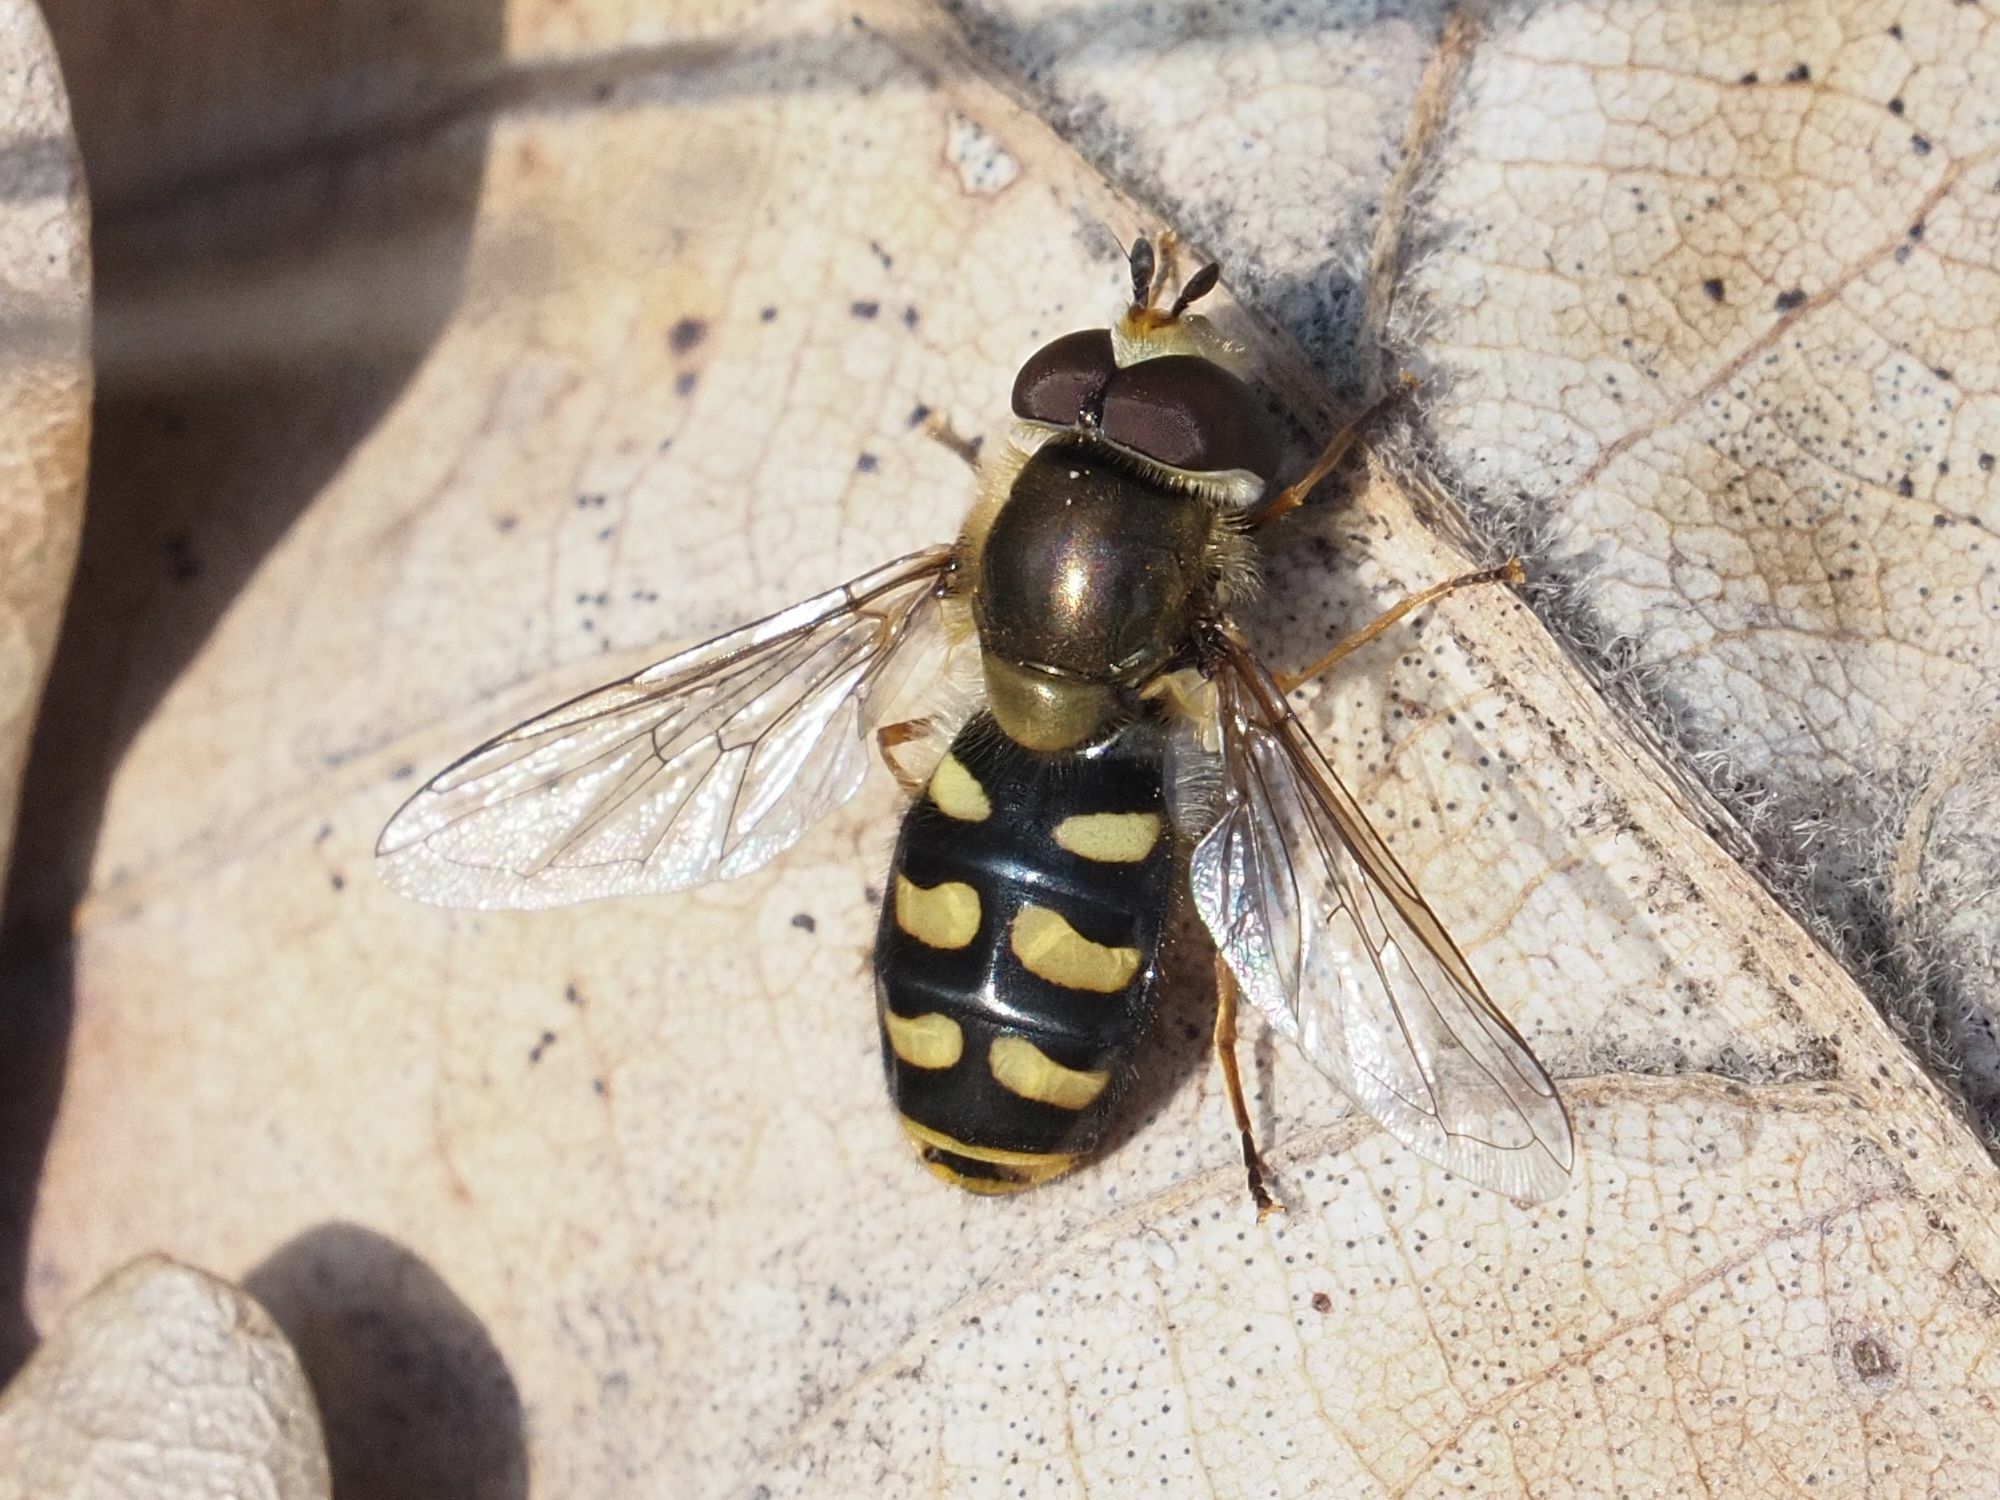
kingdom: Animalia
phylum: Arthropoda
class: Insecta
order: Diptera
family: Syrphidae
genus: Eupeodes
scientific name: Eupeodes luniger
